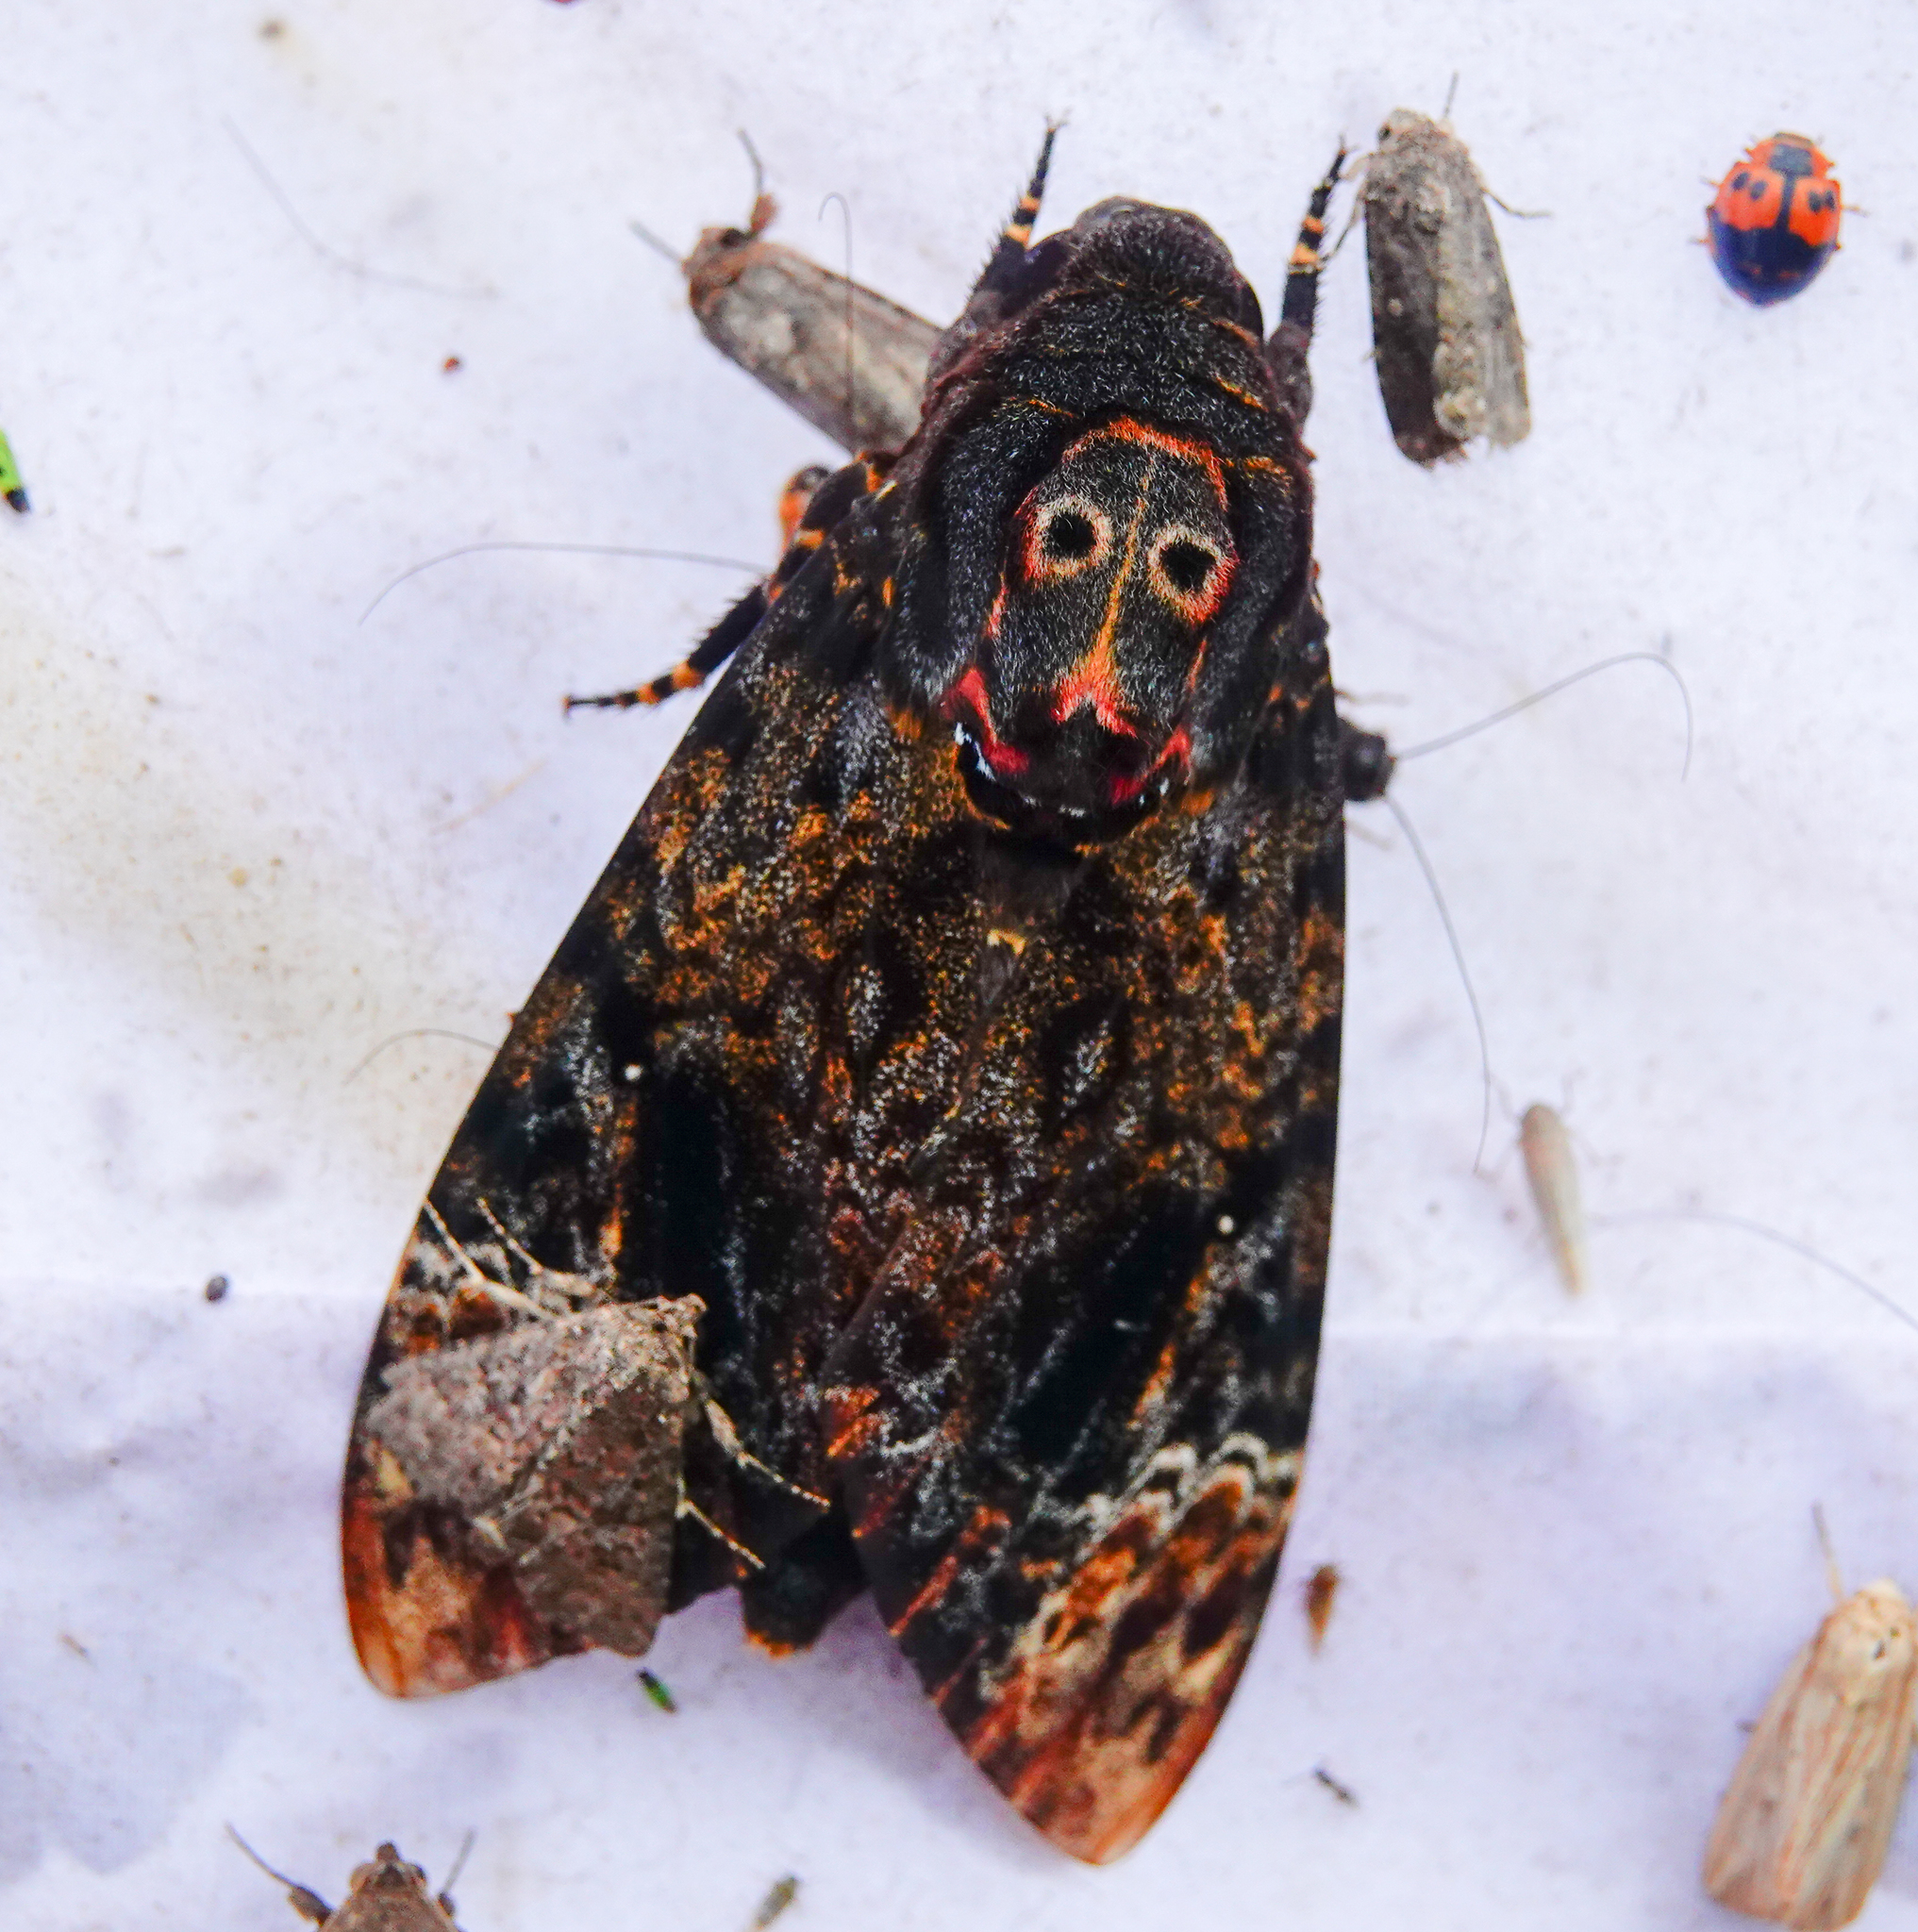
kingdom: Animalia
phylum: Arthropoda
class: Insecta
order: Lepidoptera
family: Sphingidae
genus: Acherontia
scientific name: Acherontia lachesis
